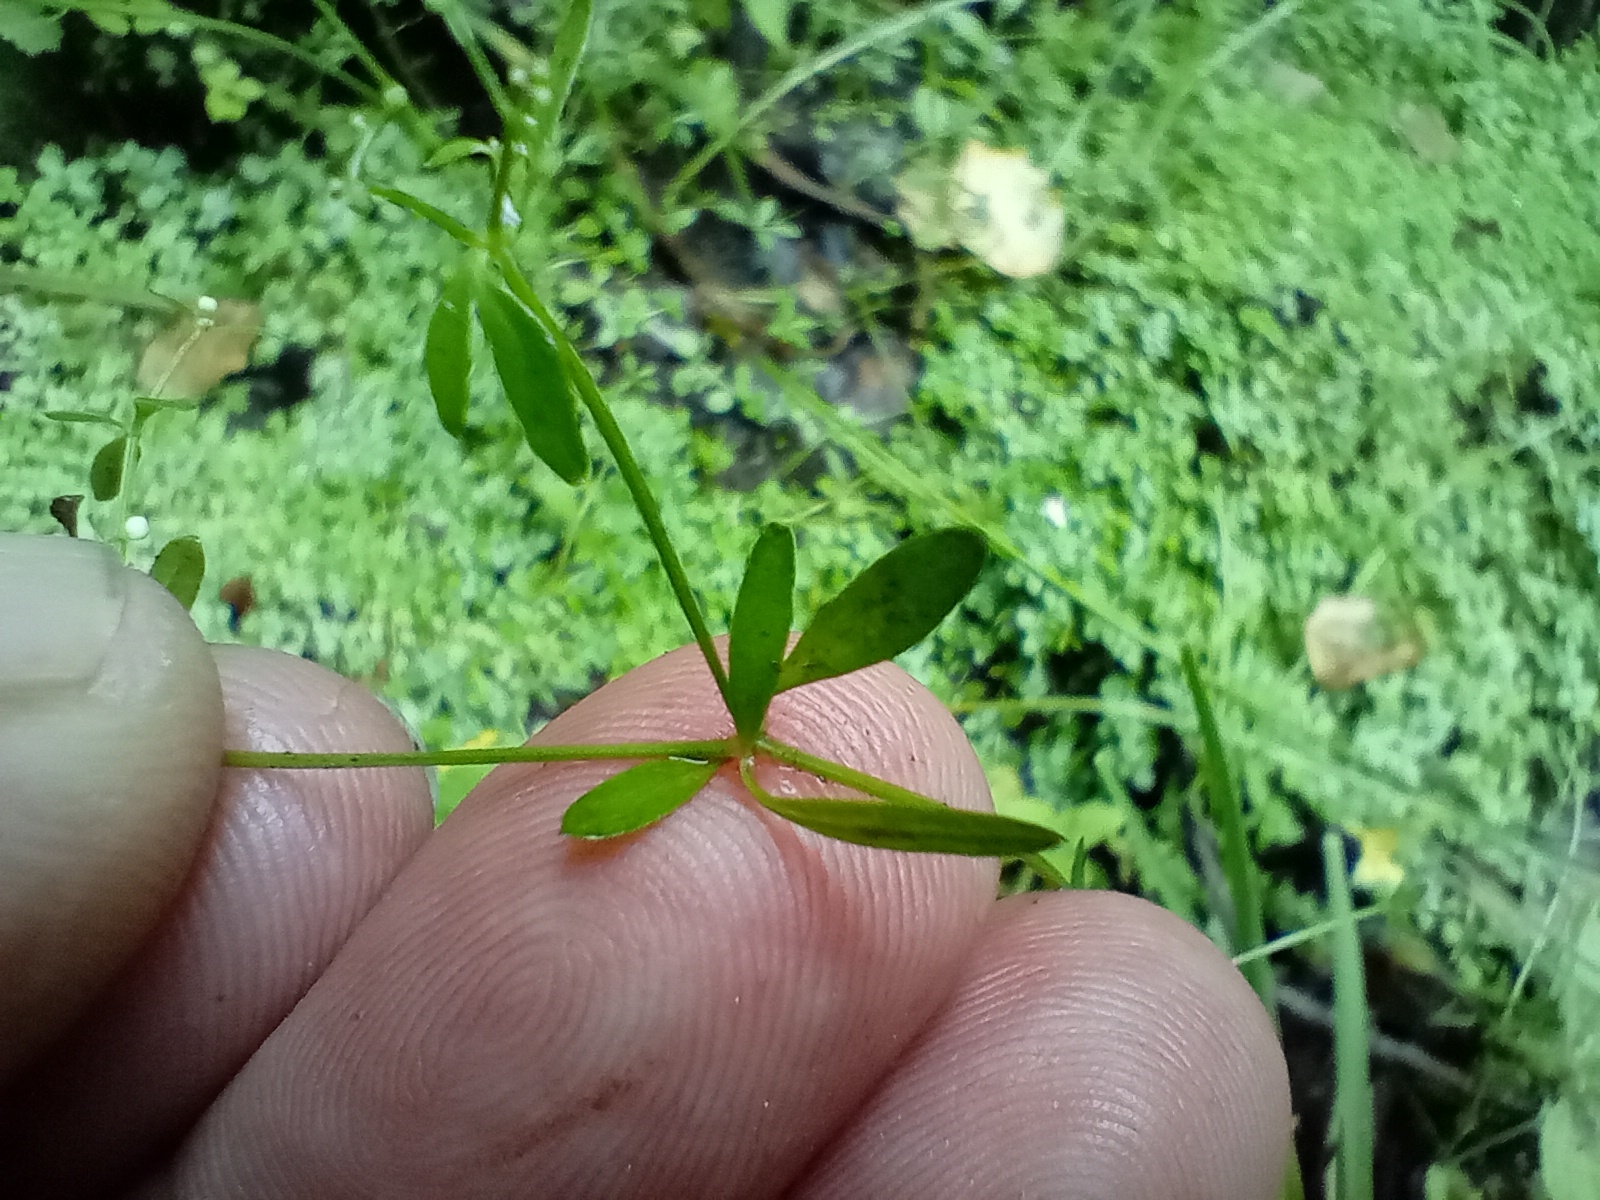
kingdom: Plantae
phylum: Tracheophyta
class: Magnoliopsida
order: Gentianales
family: Rubiaceae
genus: Galium
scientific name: Galium palustre
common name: Common marsh-bedstraw
